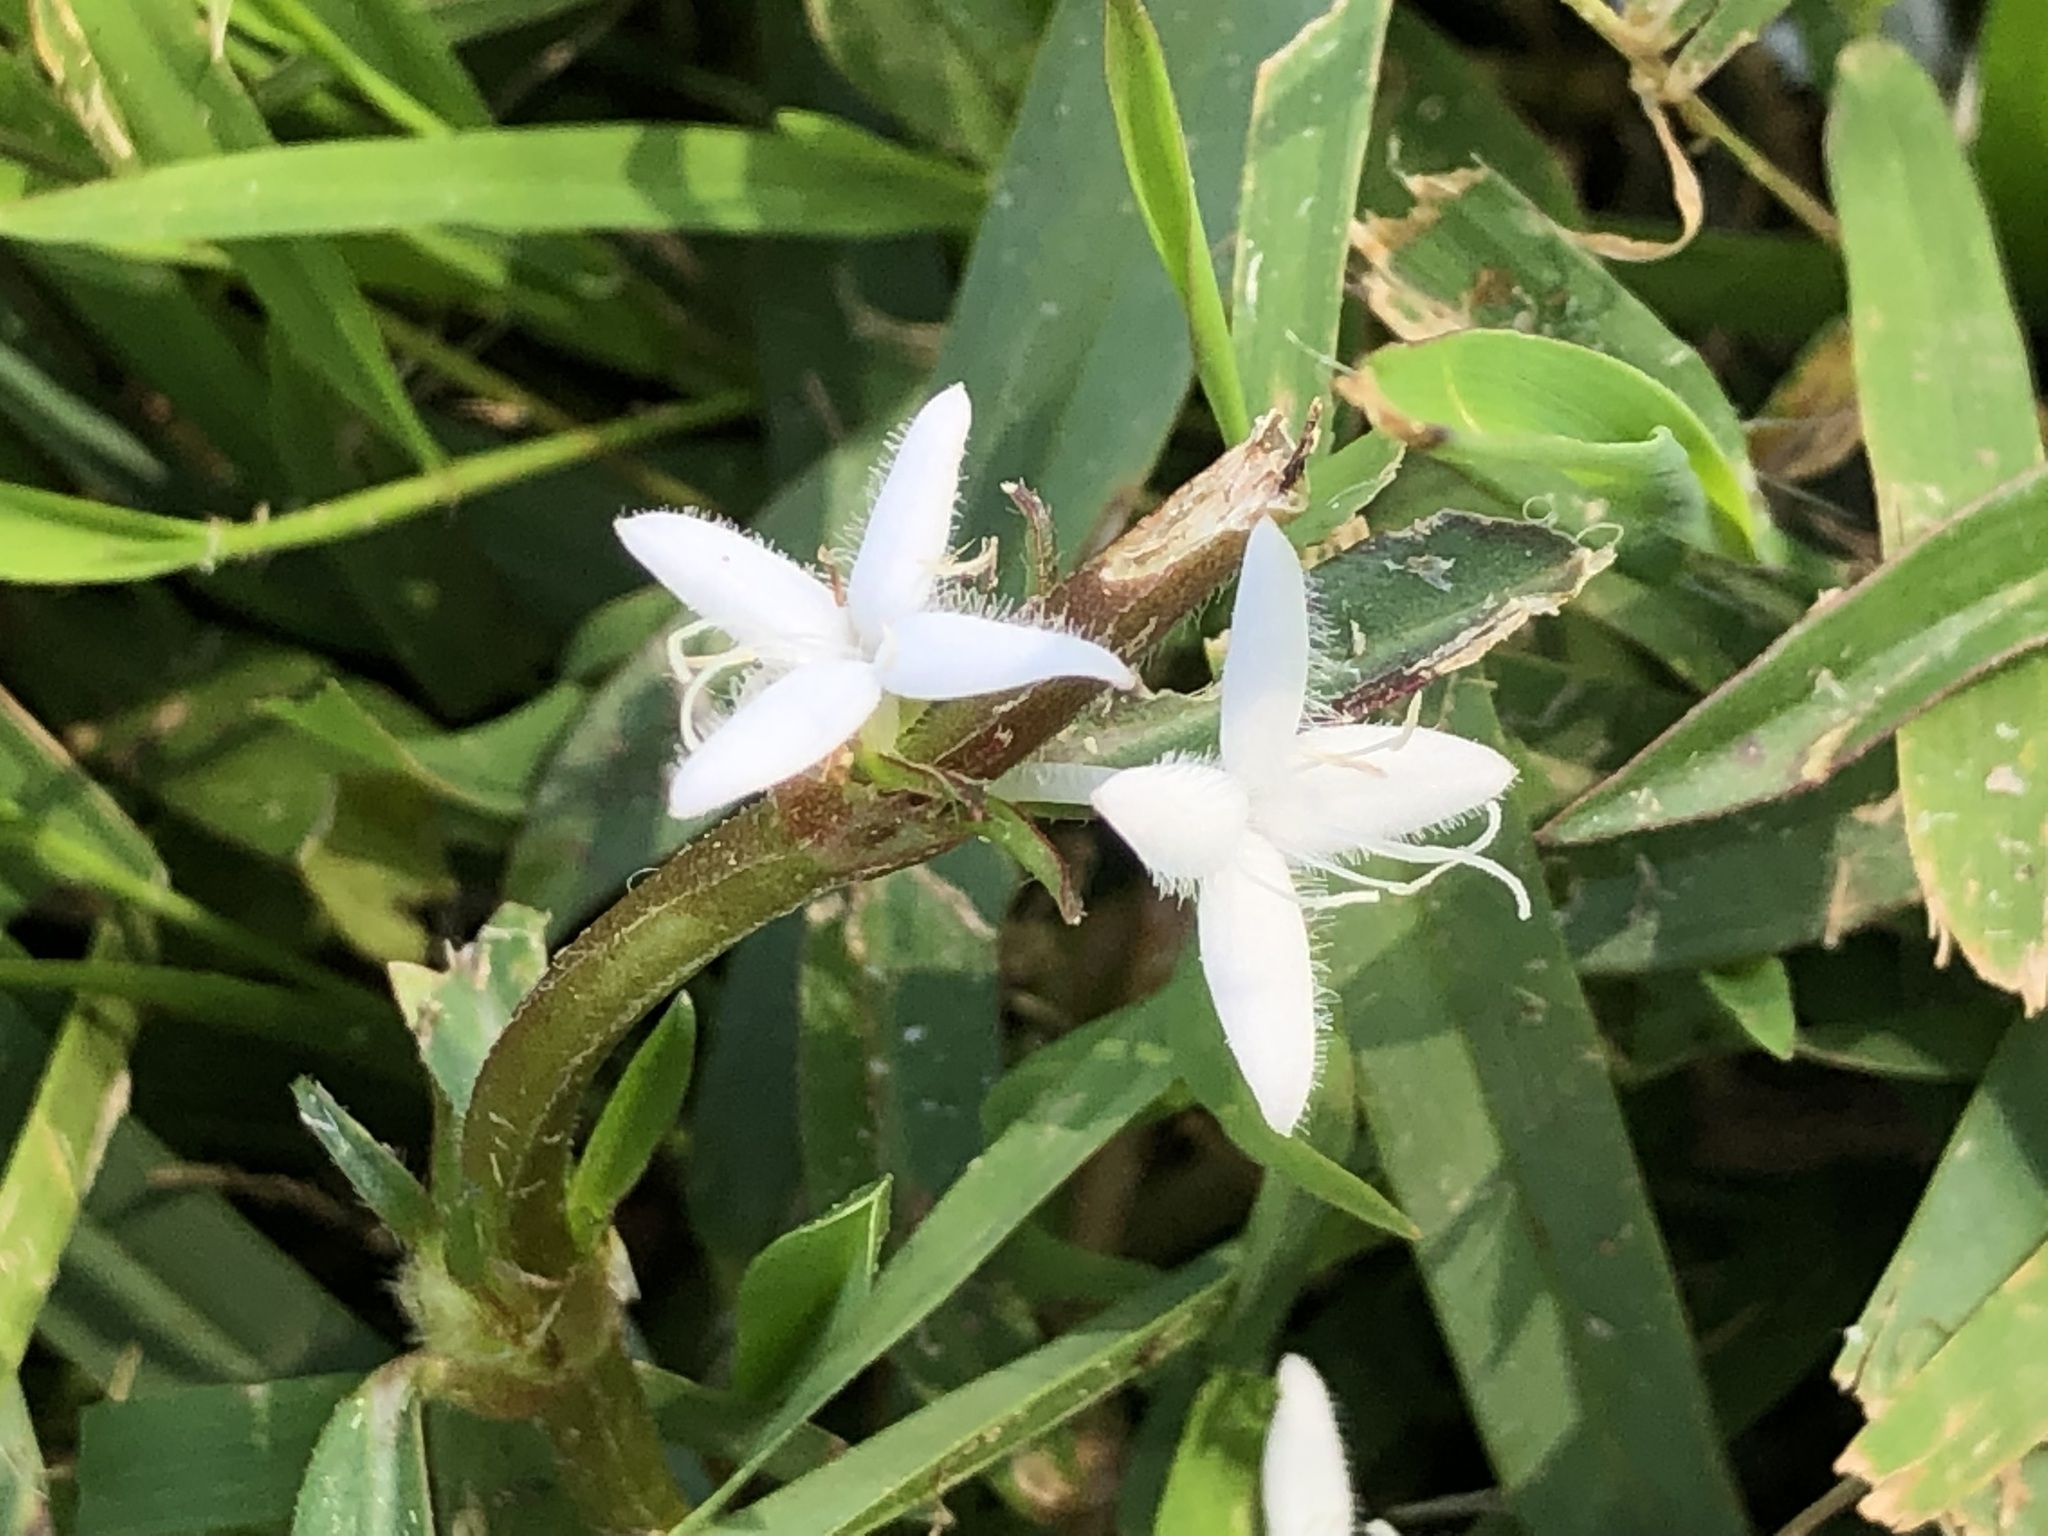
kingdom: Plantae
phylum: Tracheophyta
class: Magnoliopsida
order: Gentianales
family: Rubiaceae
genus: Diodia
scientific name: Diodia virginiana
